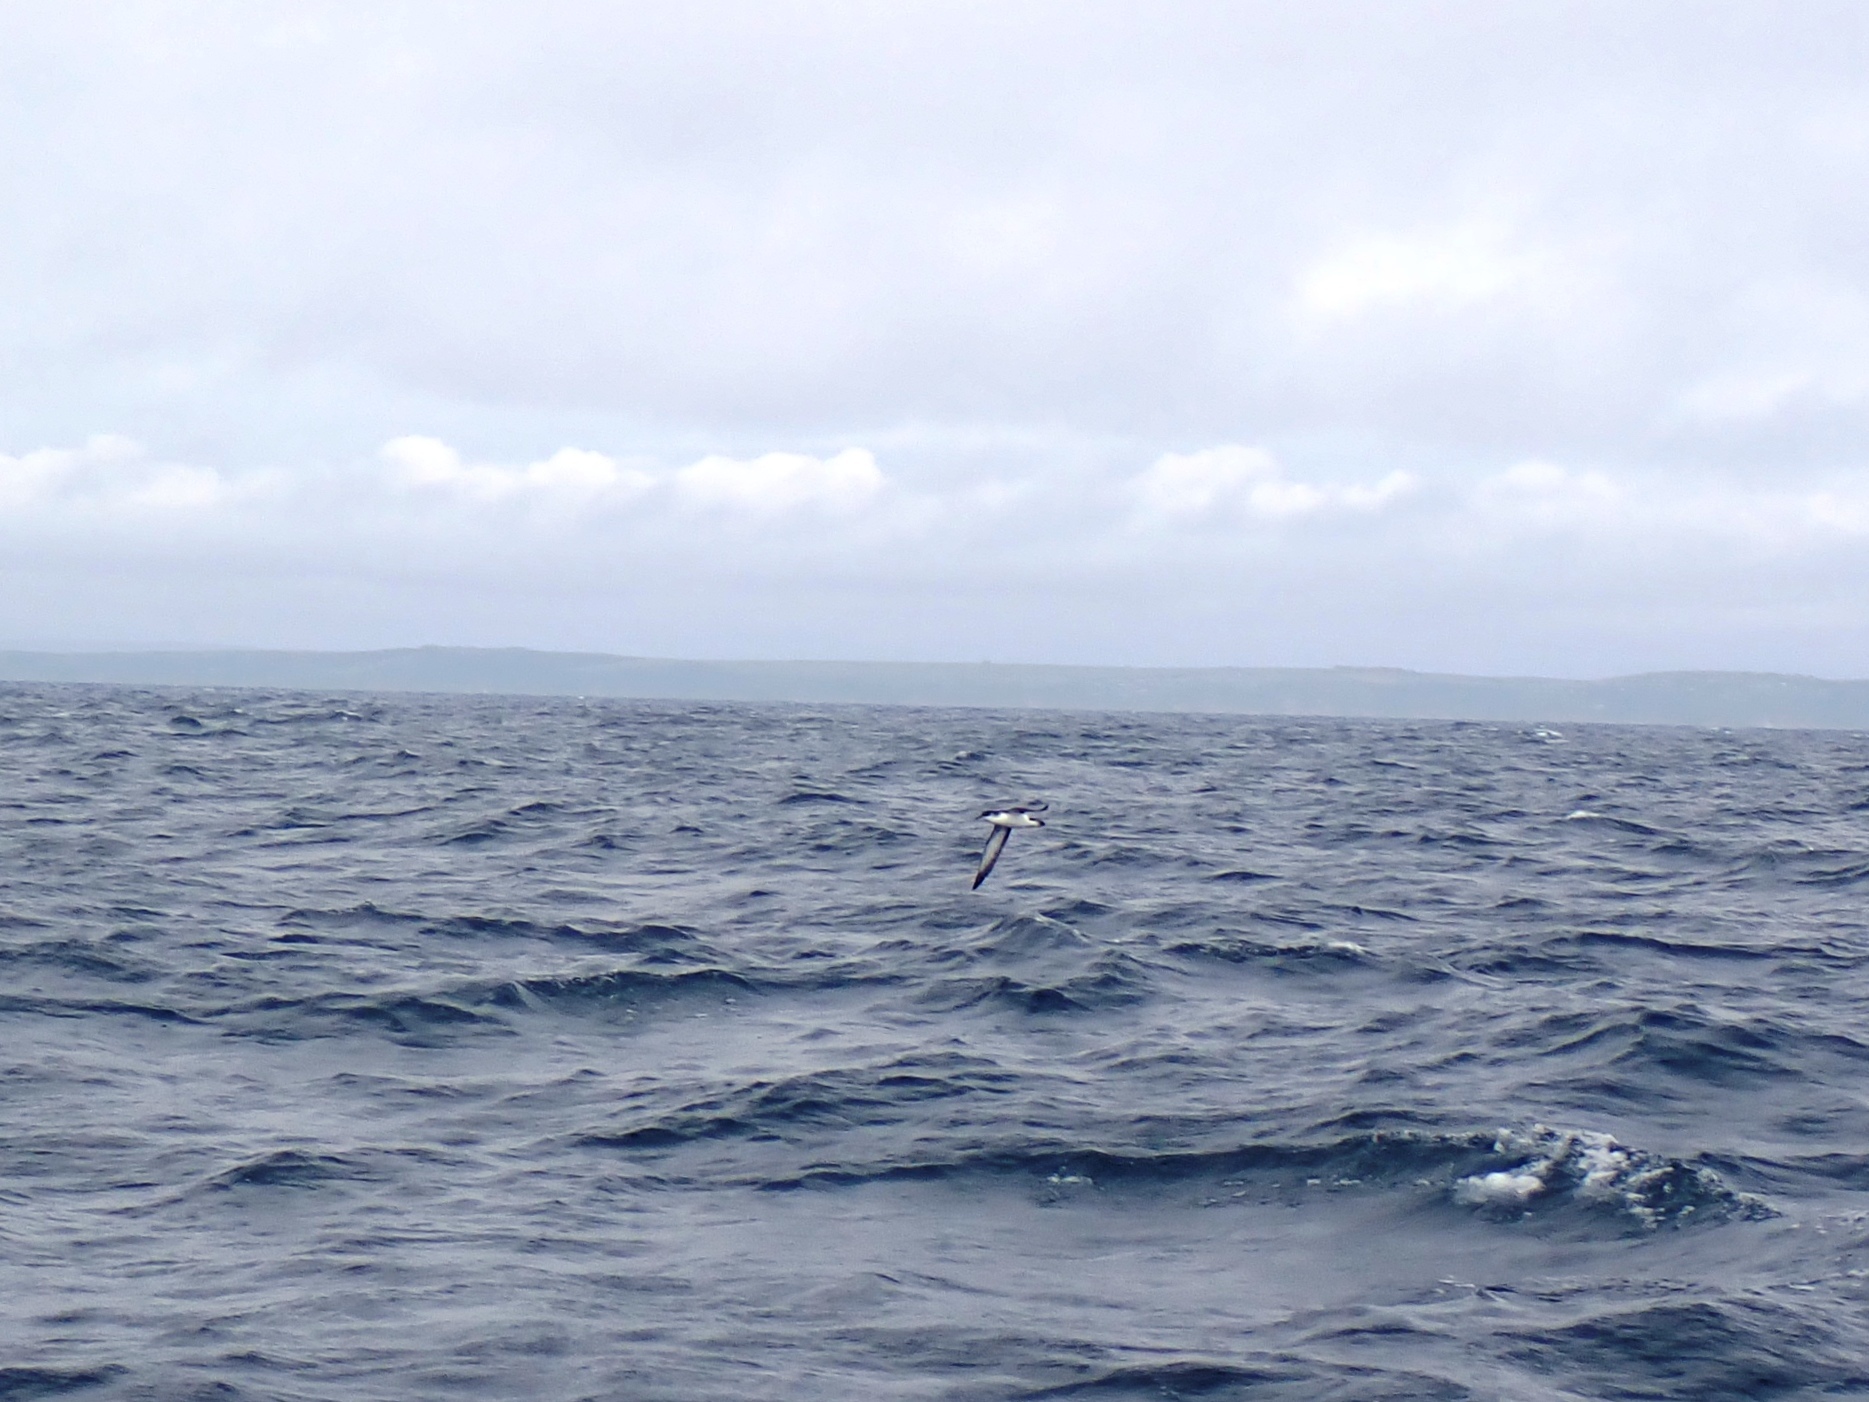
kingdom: Animalia
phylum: Chordata
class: Aves
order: Procellariiformes
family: Procellariidae
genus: Puffinus
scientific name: Puffinus puffinus
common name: Manx shearwater
